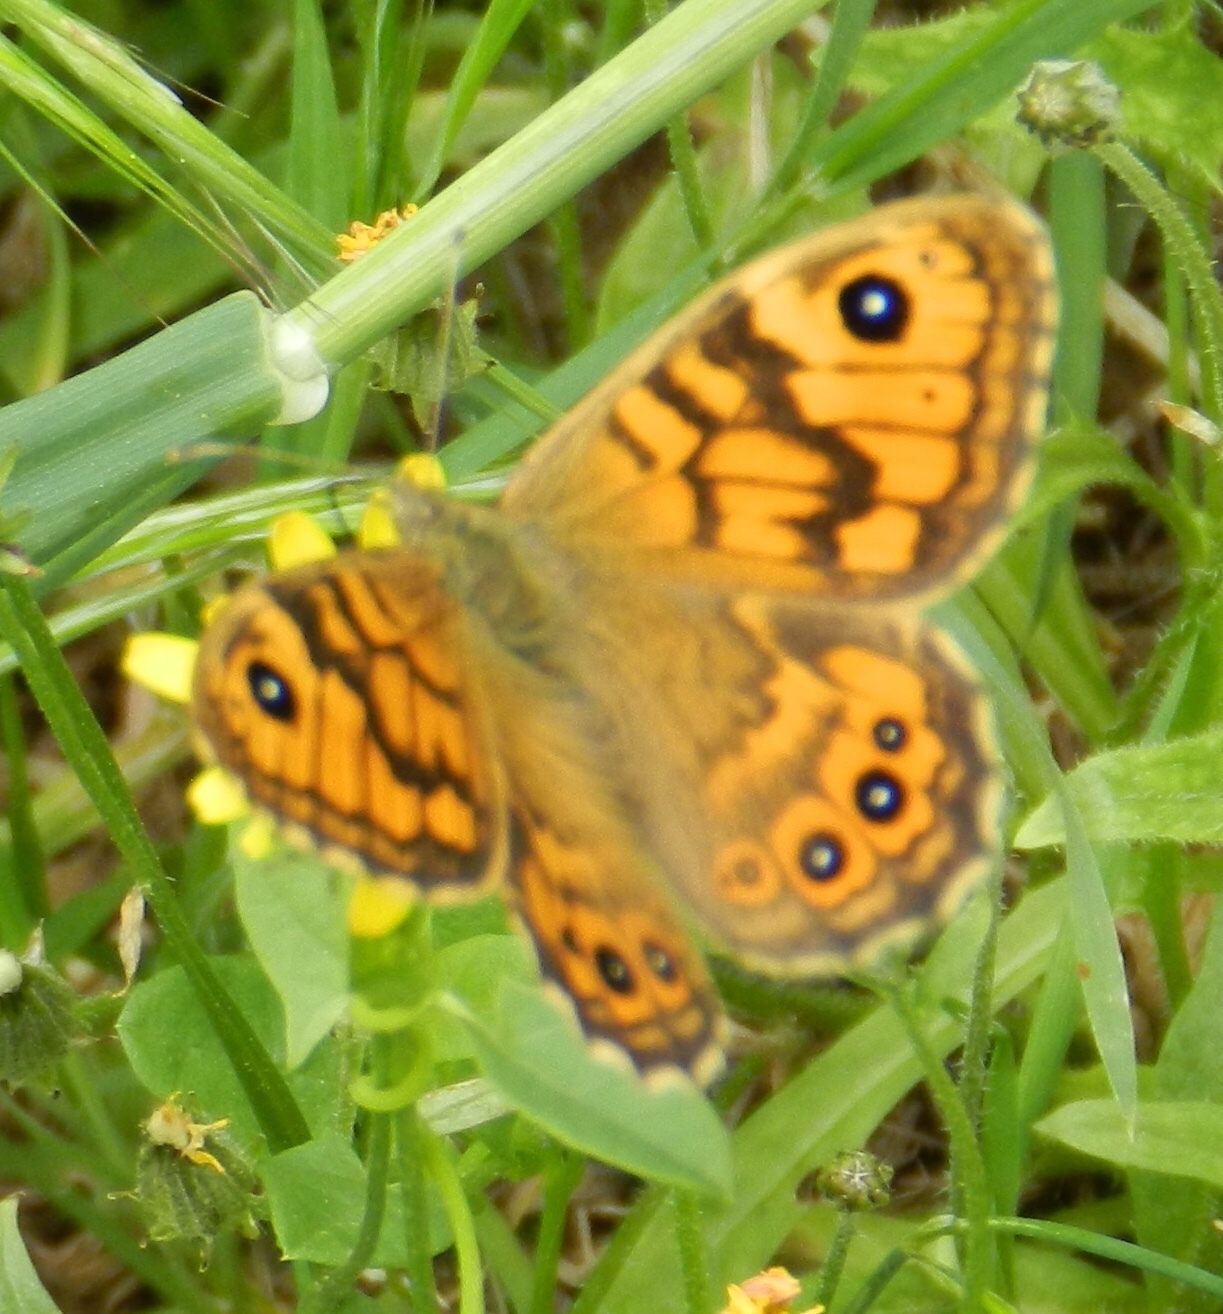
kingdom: Animalia
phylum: Arthropoda
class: Insecta
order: Lepidoptera
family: Nymphalidae
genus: Pararge
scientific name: Pararge Lasiommata megera
